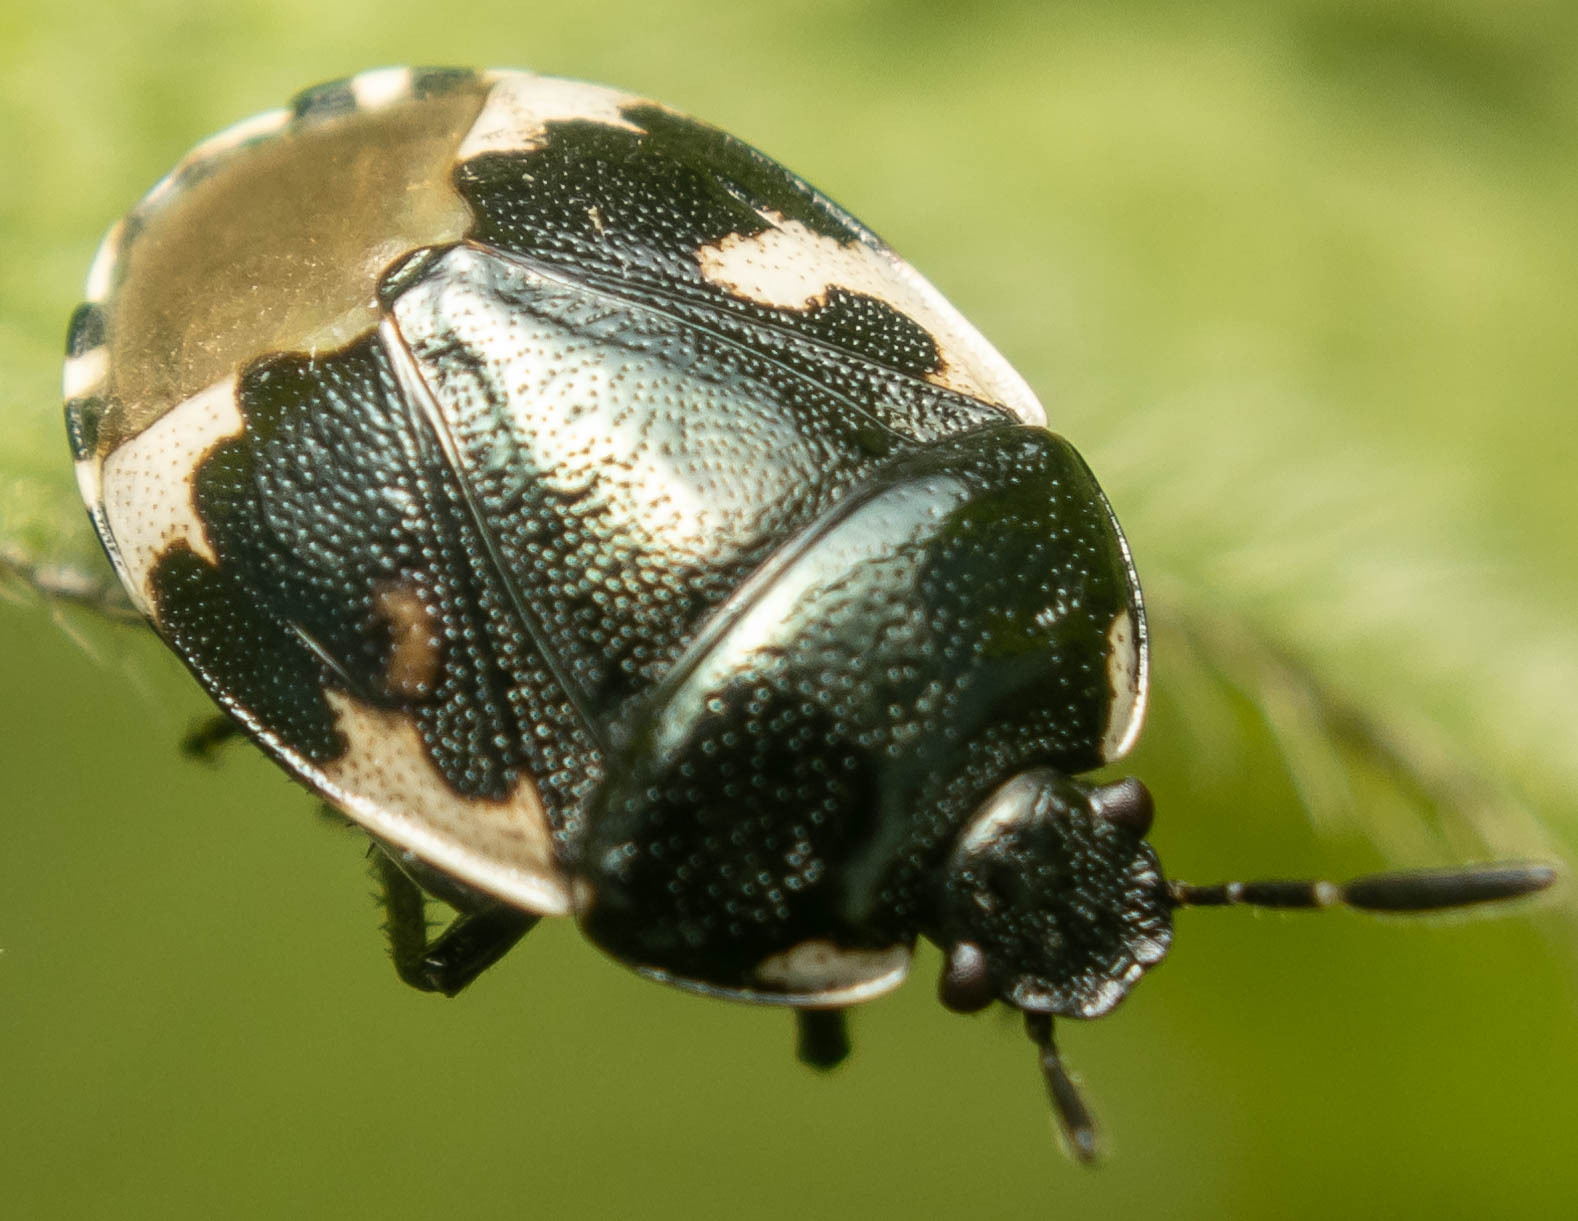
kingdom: Animalia
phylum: Arthropoda
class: Insecta
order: Hemiptera
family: Cydnidae
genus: Tritomegas
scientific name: Tritomegas bicolor
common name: Pied shieldbug
